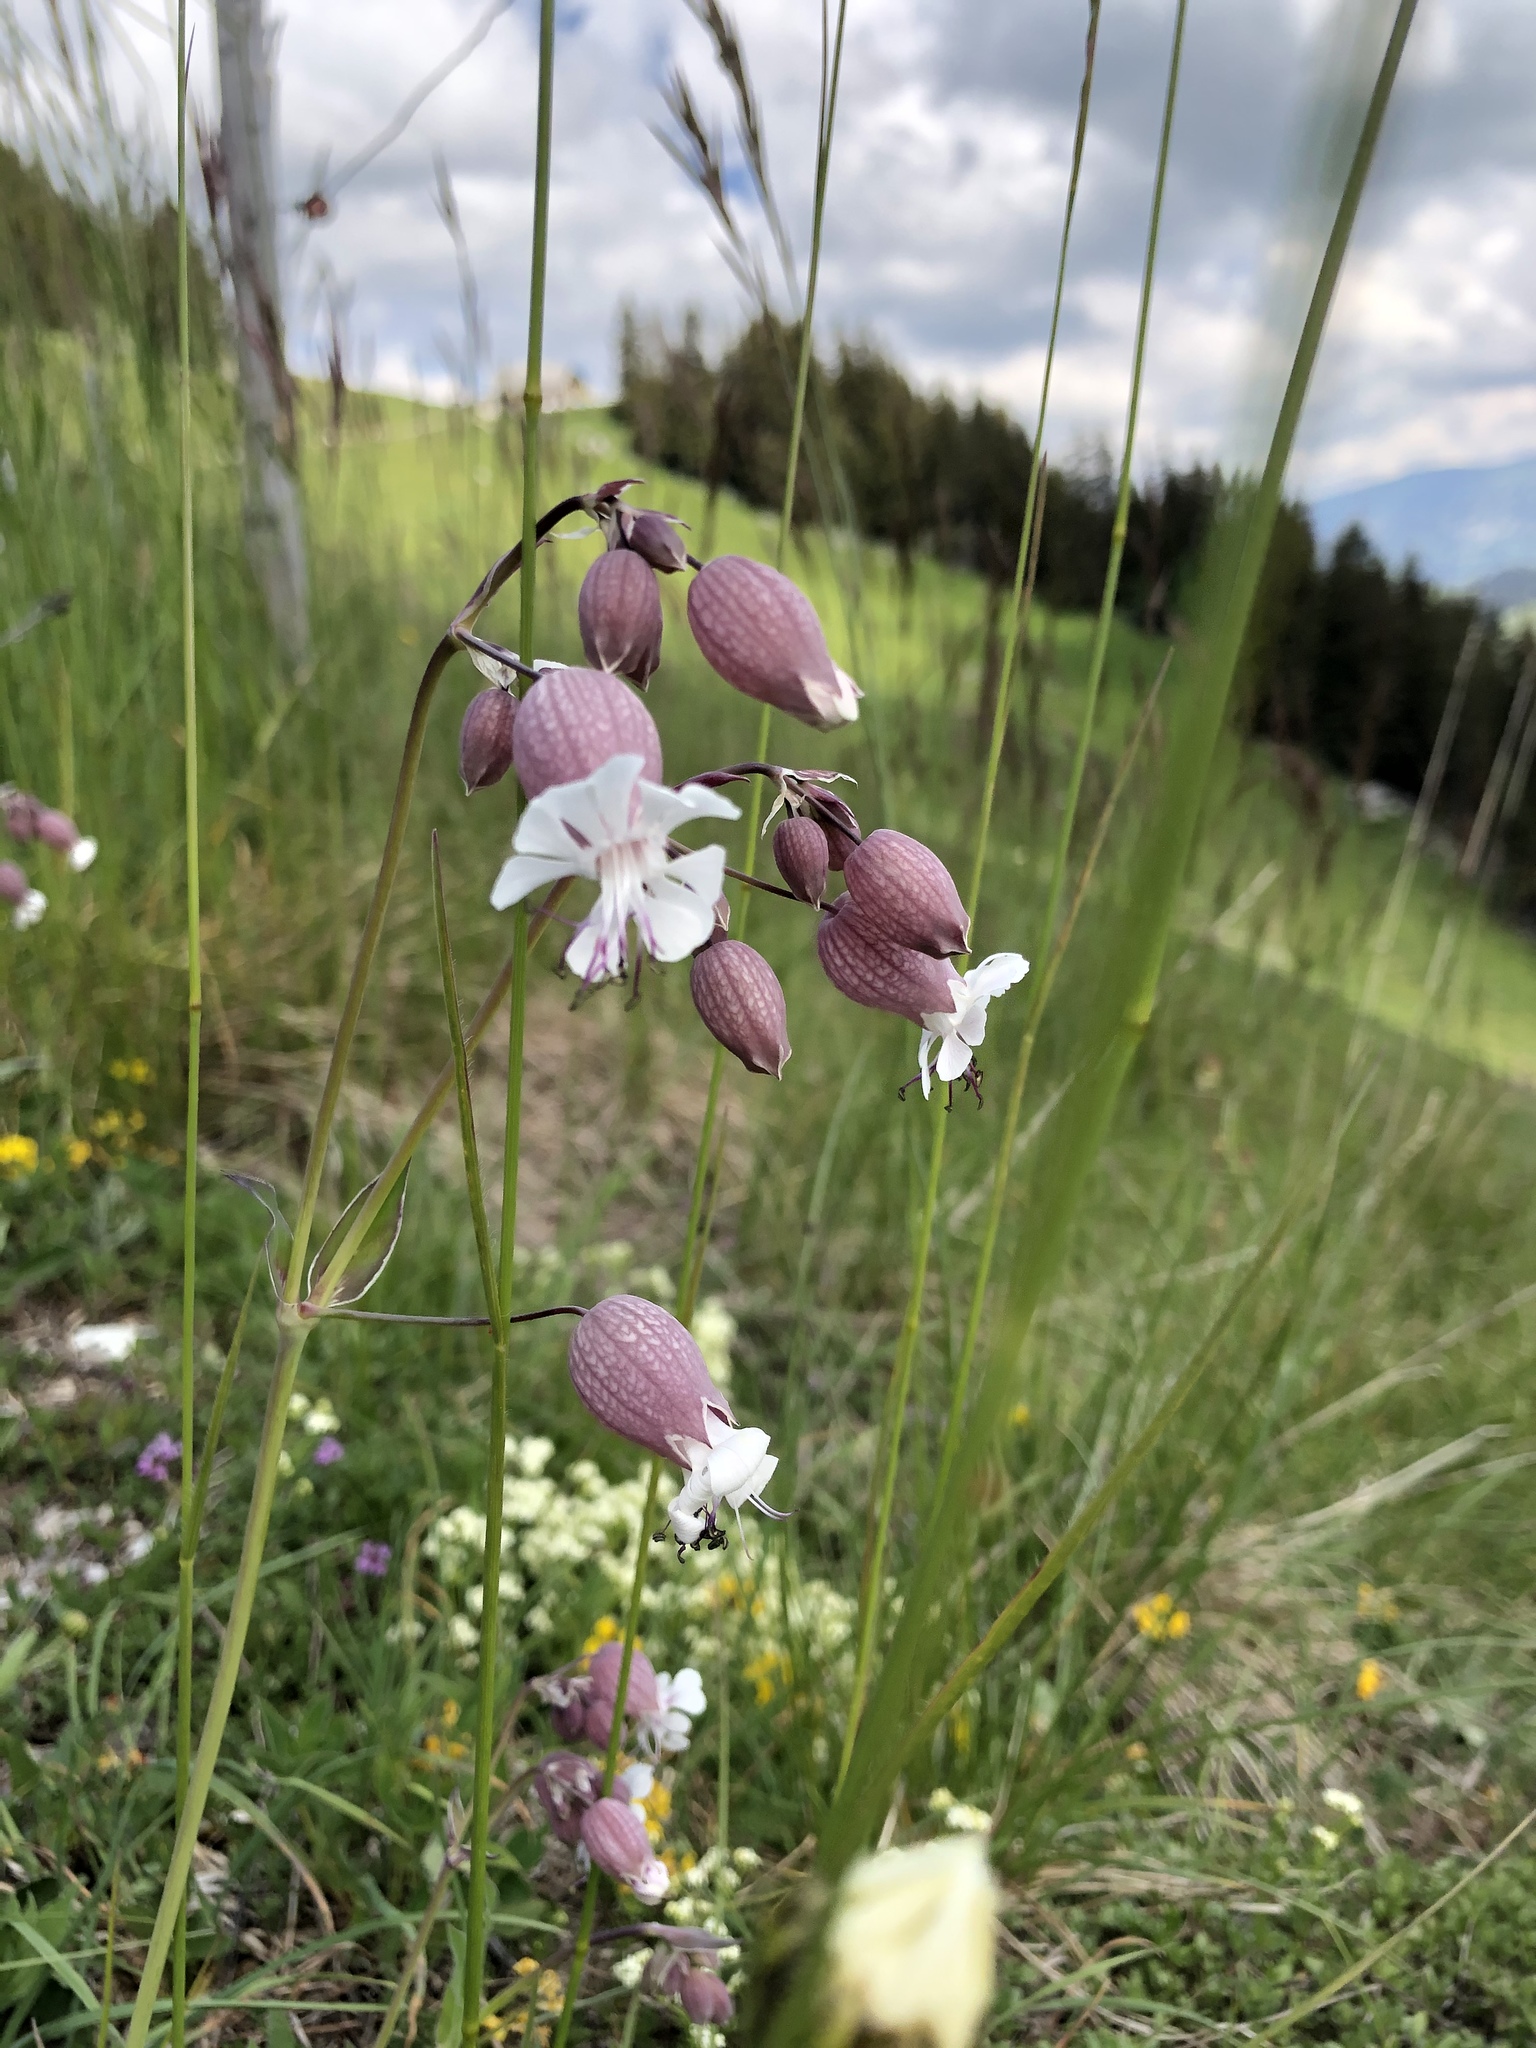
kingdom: Plantae
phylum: Tracheophyta
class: Magnoliopsida
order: Caryophyllales
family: Caryophyllaceae
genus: Silene
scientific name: Silene vulgaris
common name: Bladder campion
